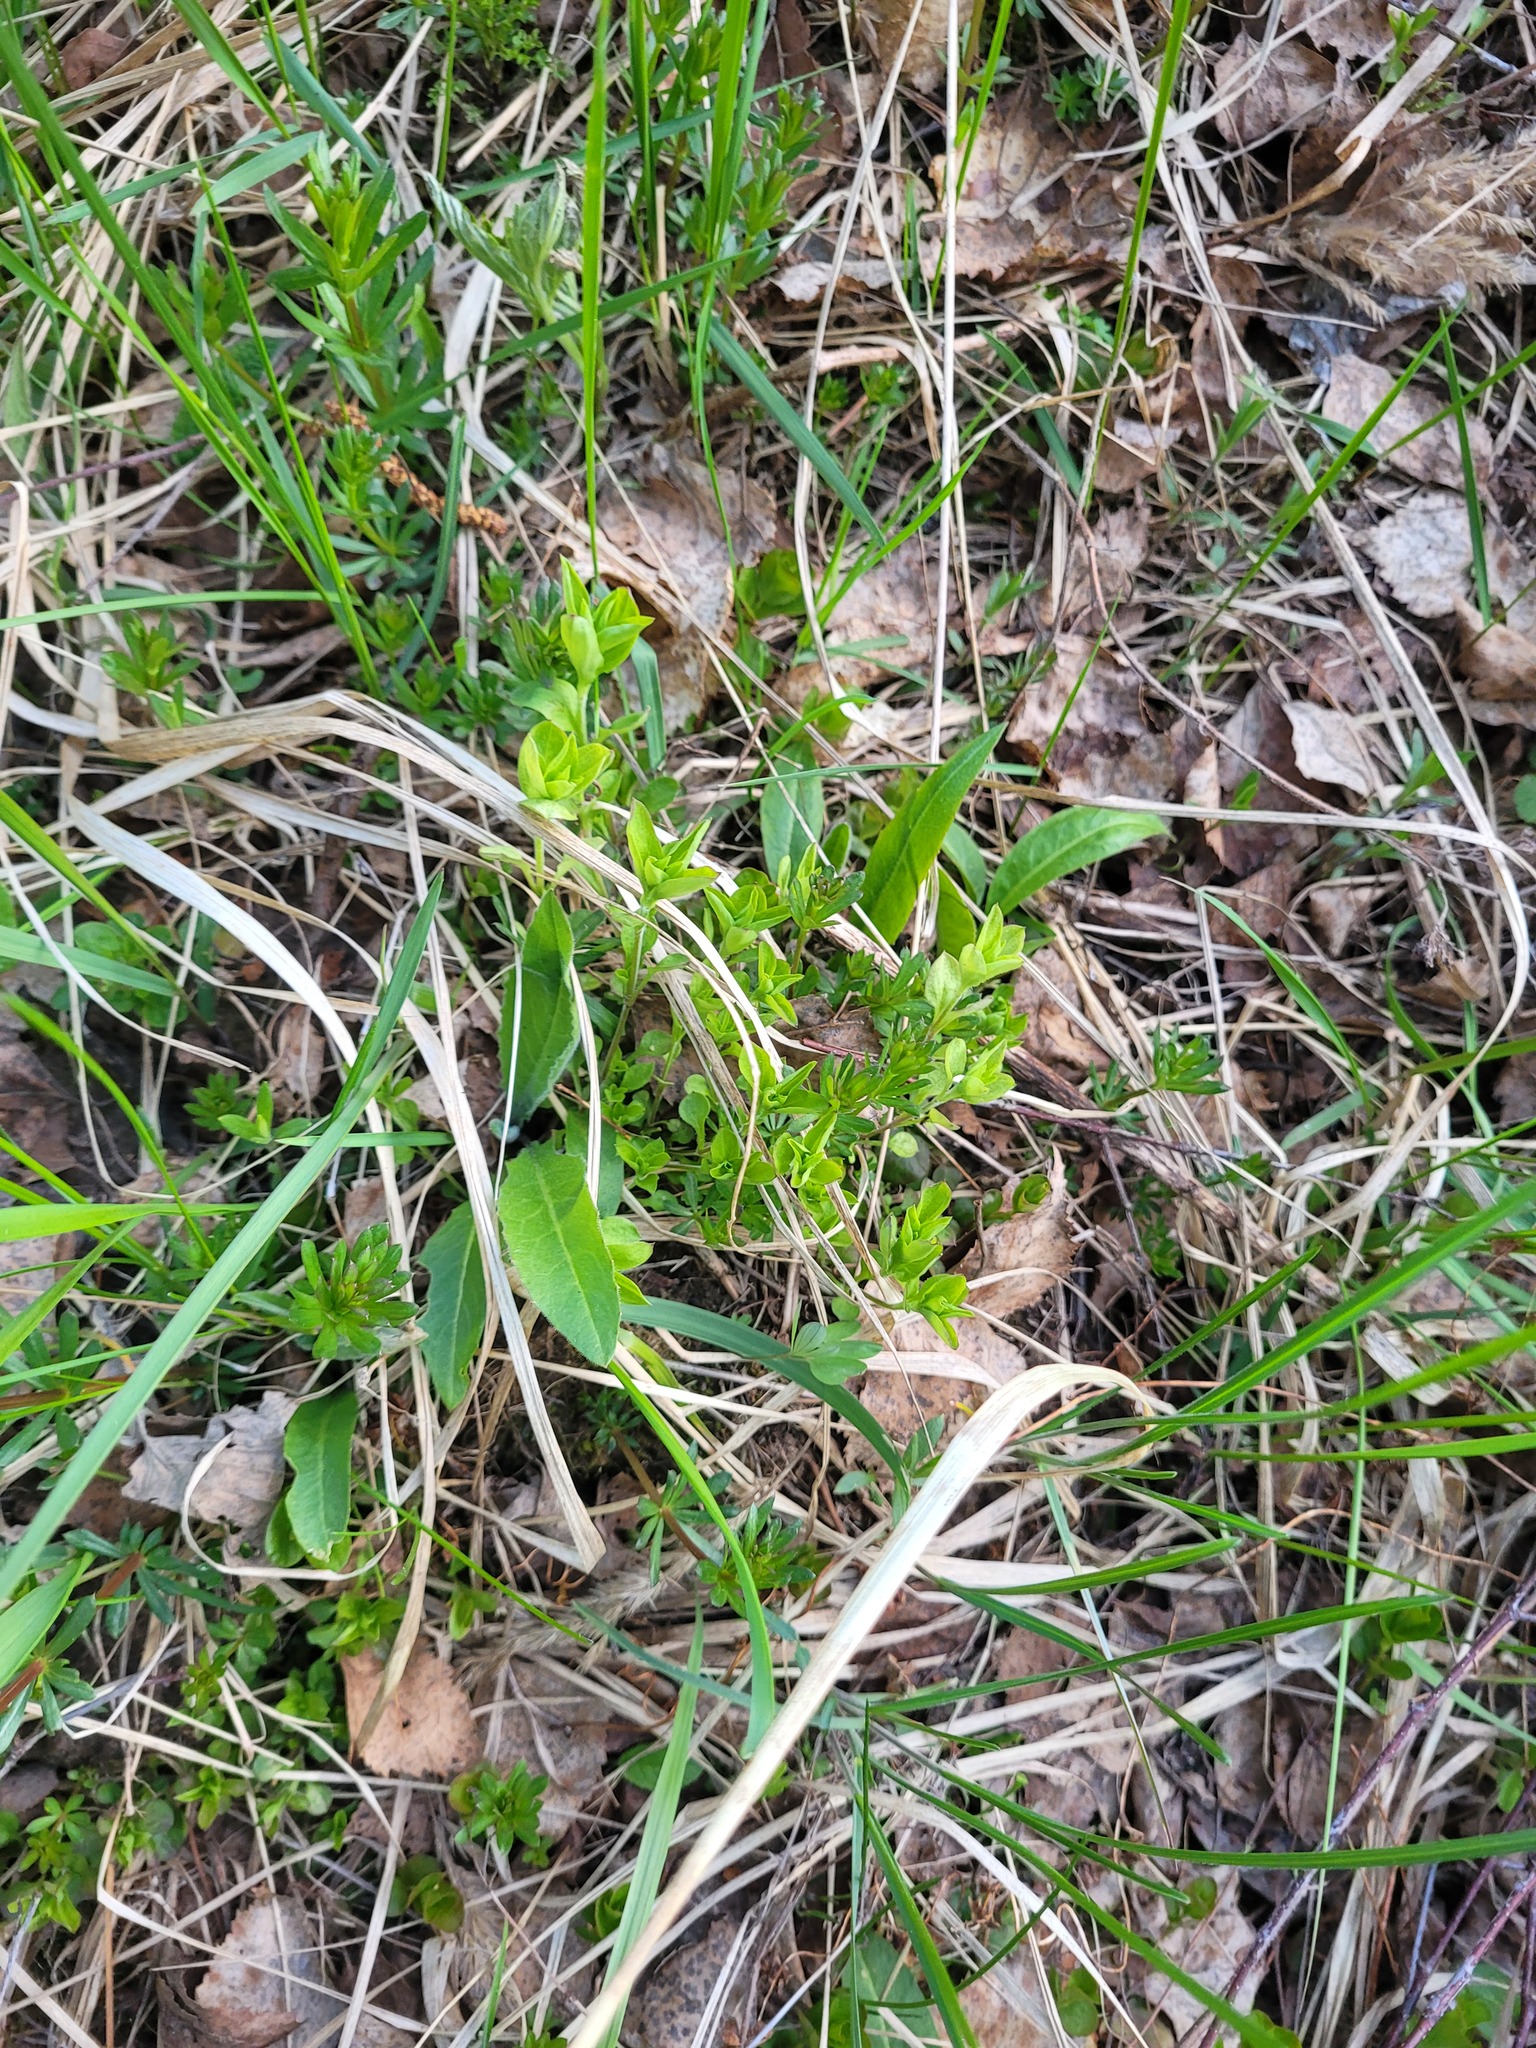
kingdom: Plantae
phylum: Tracheophyta
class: Magnoliopsida
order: Caryophyllales
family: Caryophyllaceae
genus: Moehringia
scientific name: Moehringia trinervia
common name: Three-nerved sandwort
